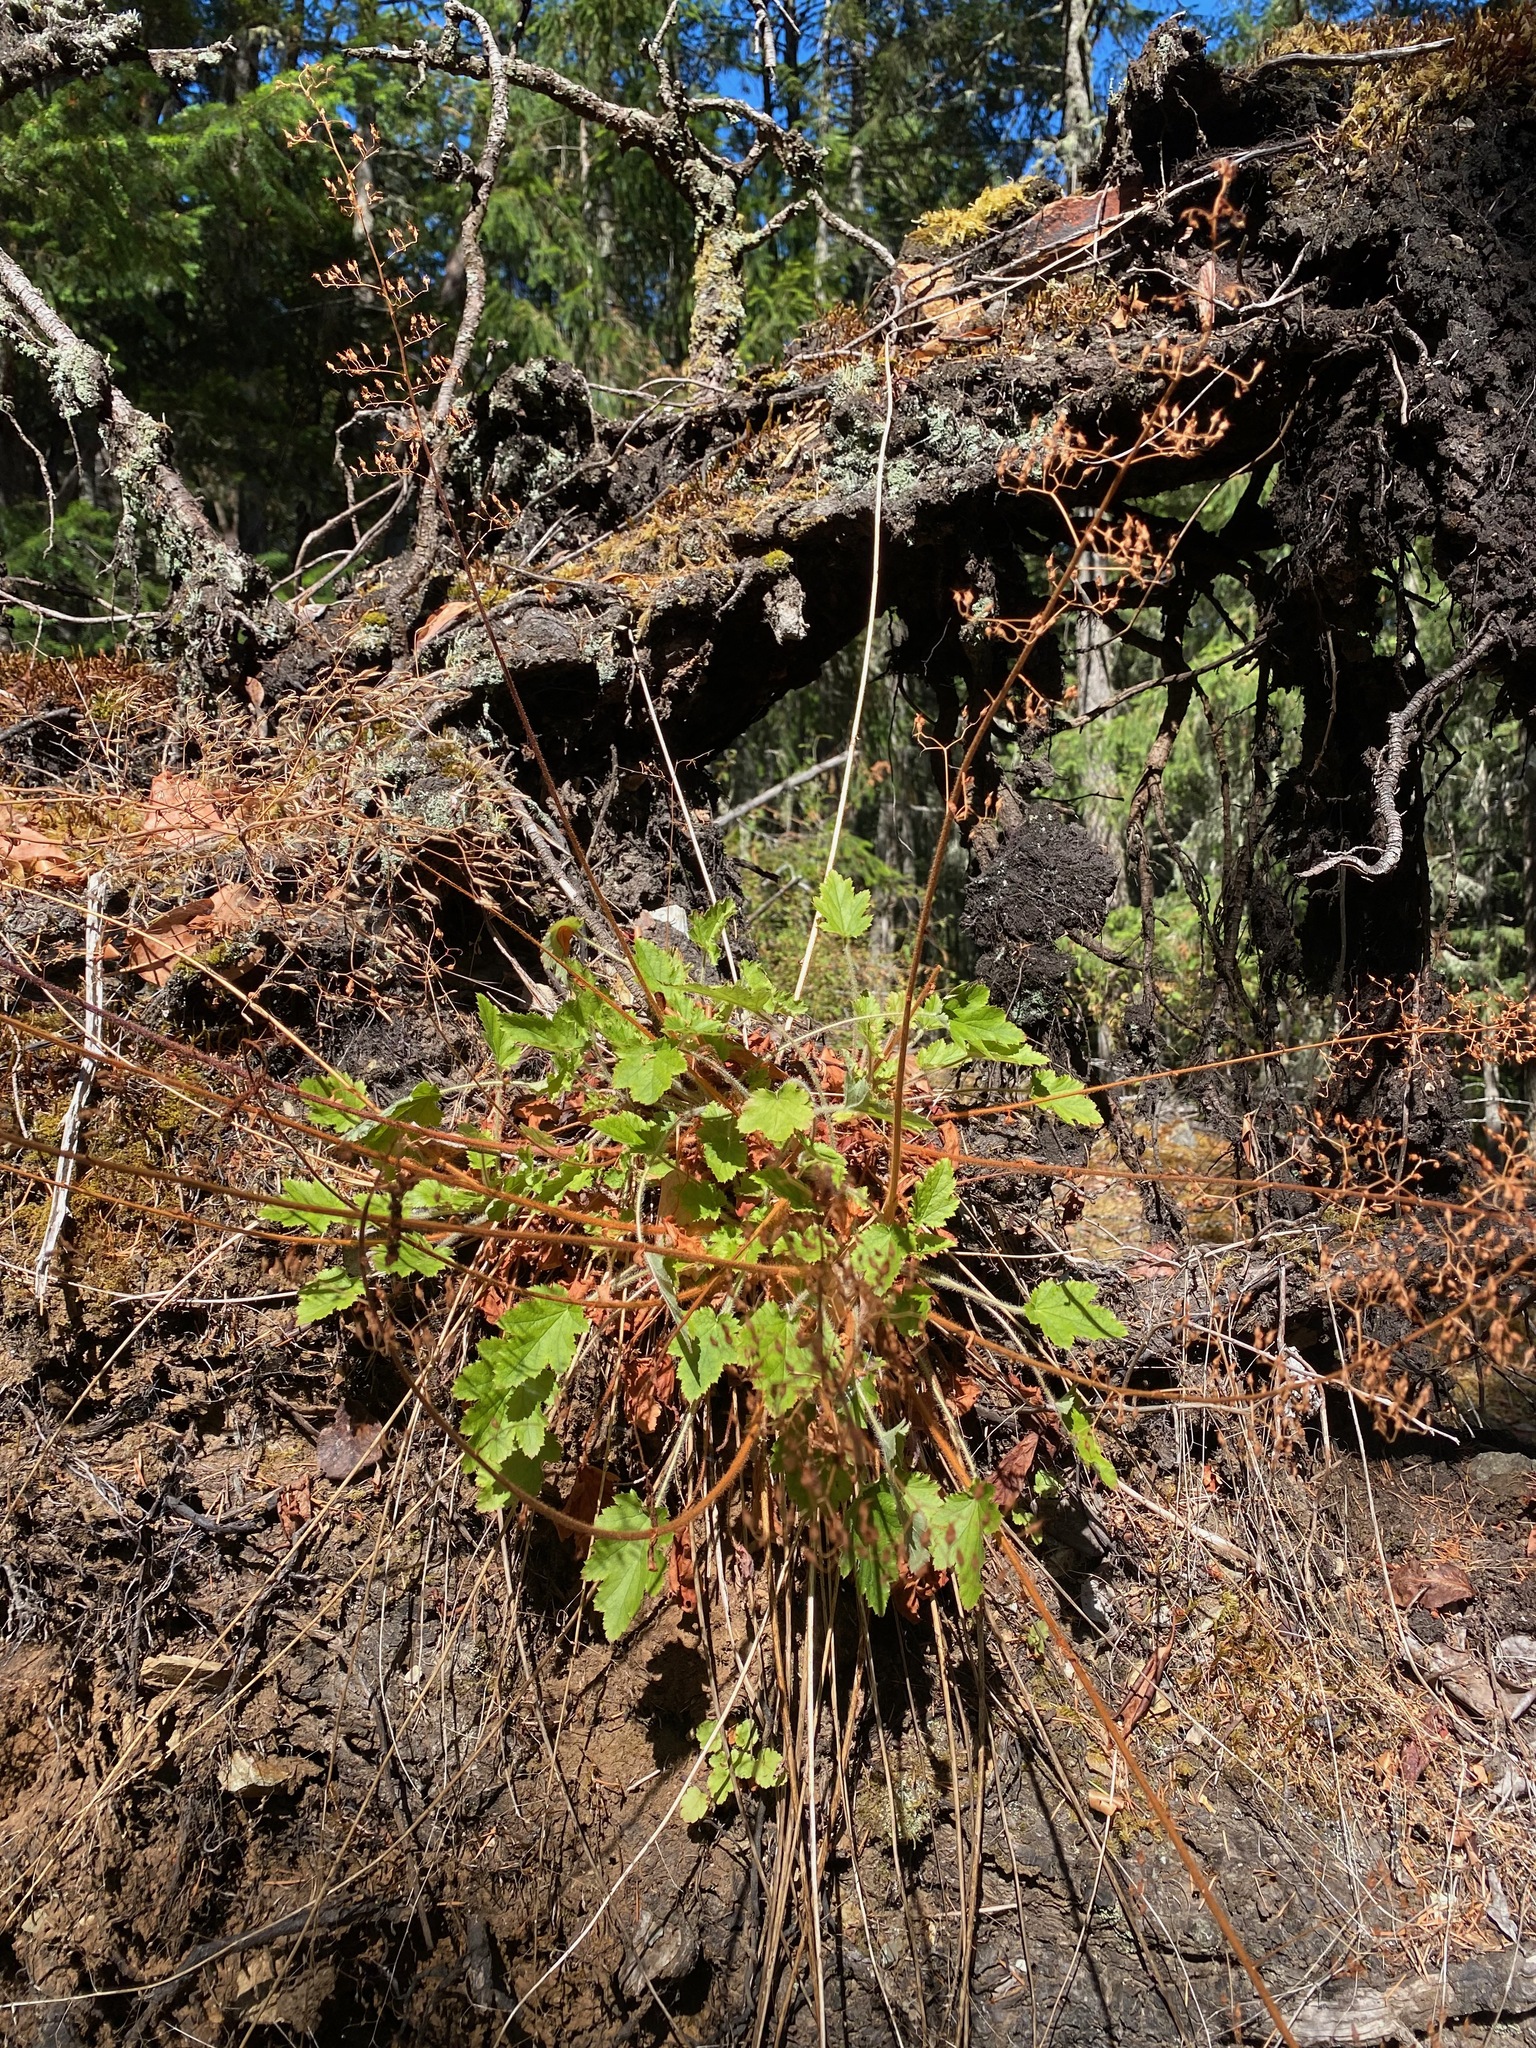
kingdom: Plantae
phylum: Tracheophyta
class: Magnoliopsida
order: Saxifragales
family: Saxifragaceae
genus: Heuchera
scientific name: Heuchera micrantha
